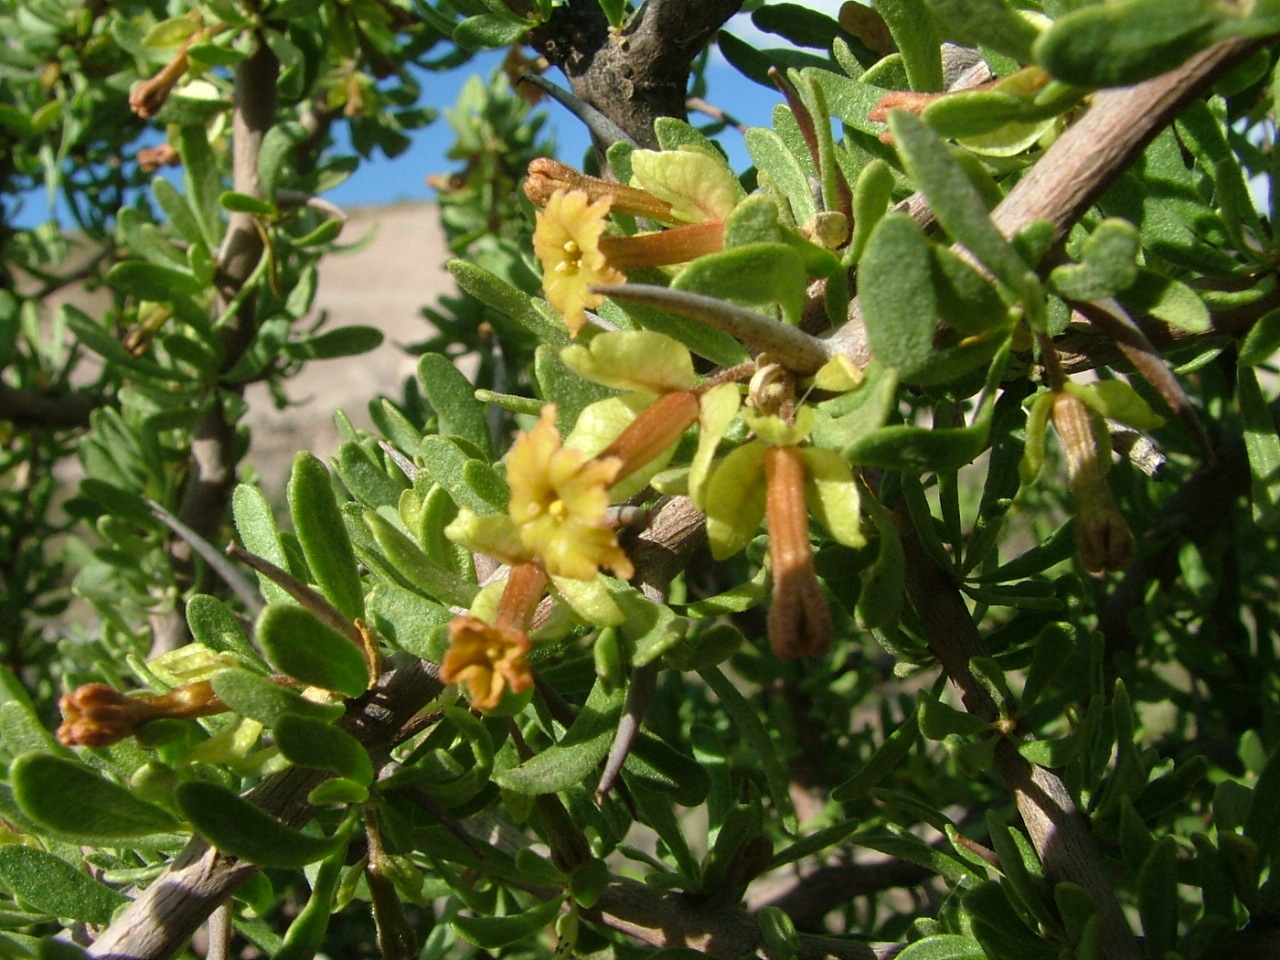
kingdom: Plantae
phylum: Tracheophyta
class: Magnoliopsida
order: Caryophyllales
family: Nyctaginaceae
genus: Bougainvillea
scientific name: Bougainvillea spinosa
